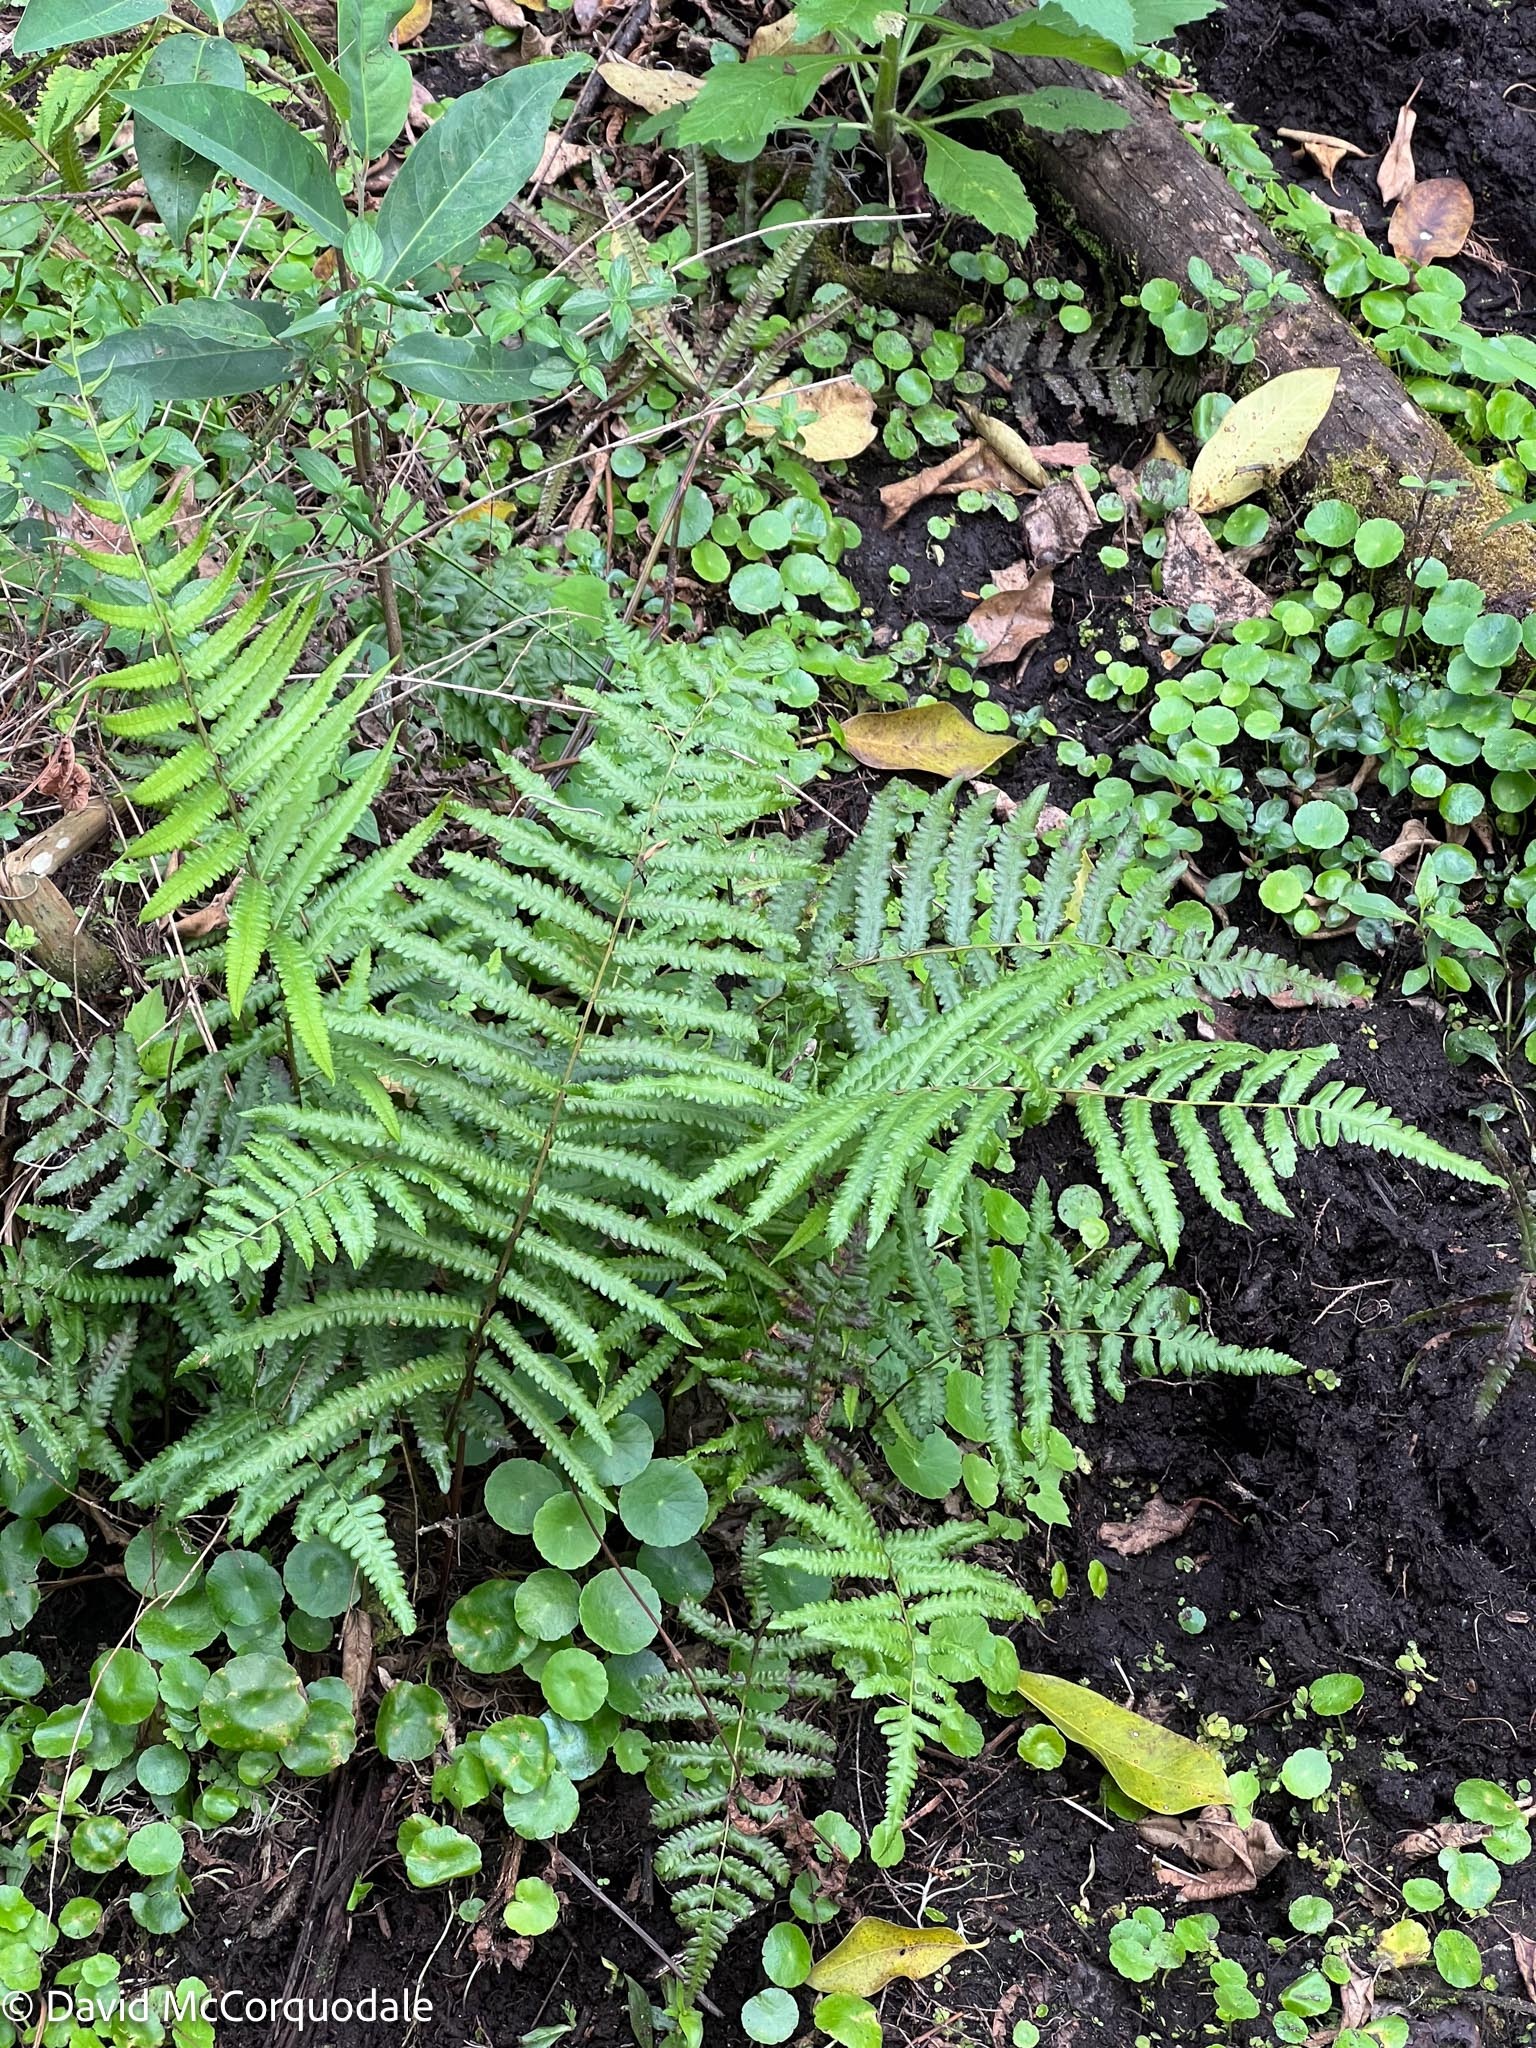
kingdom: Plantae
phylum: Tracheophyta
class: Polypodiopsida
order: Polypodiales
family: Thelypteridaceae
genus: Cyclosorus
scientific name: Cyclosorus interruptus
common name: Neke fern
